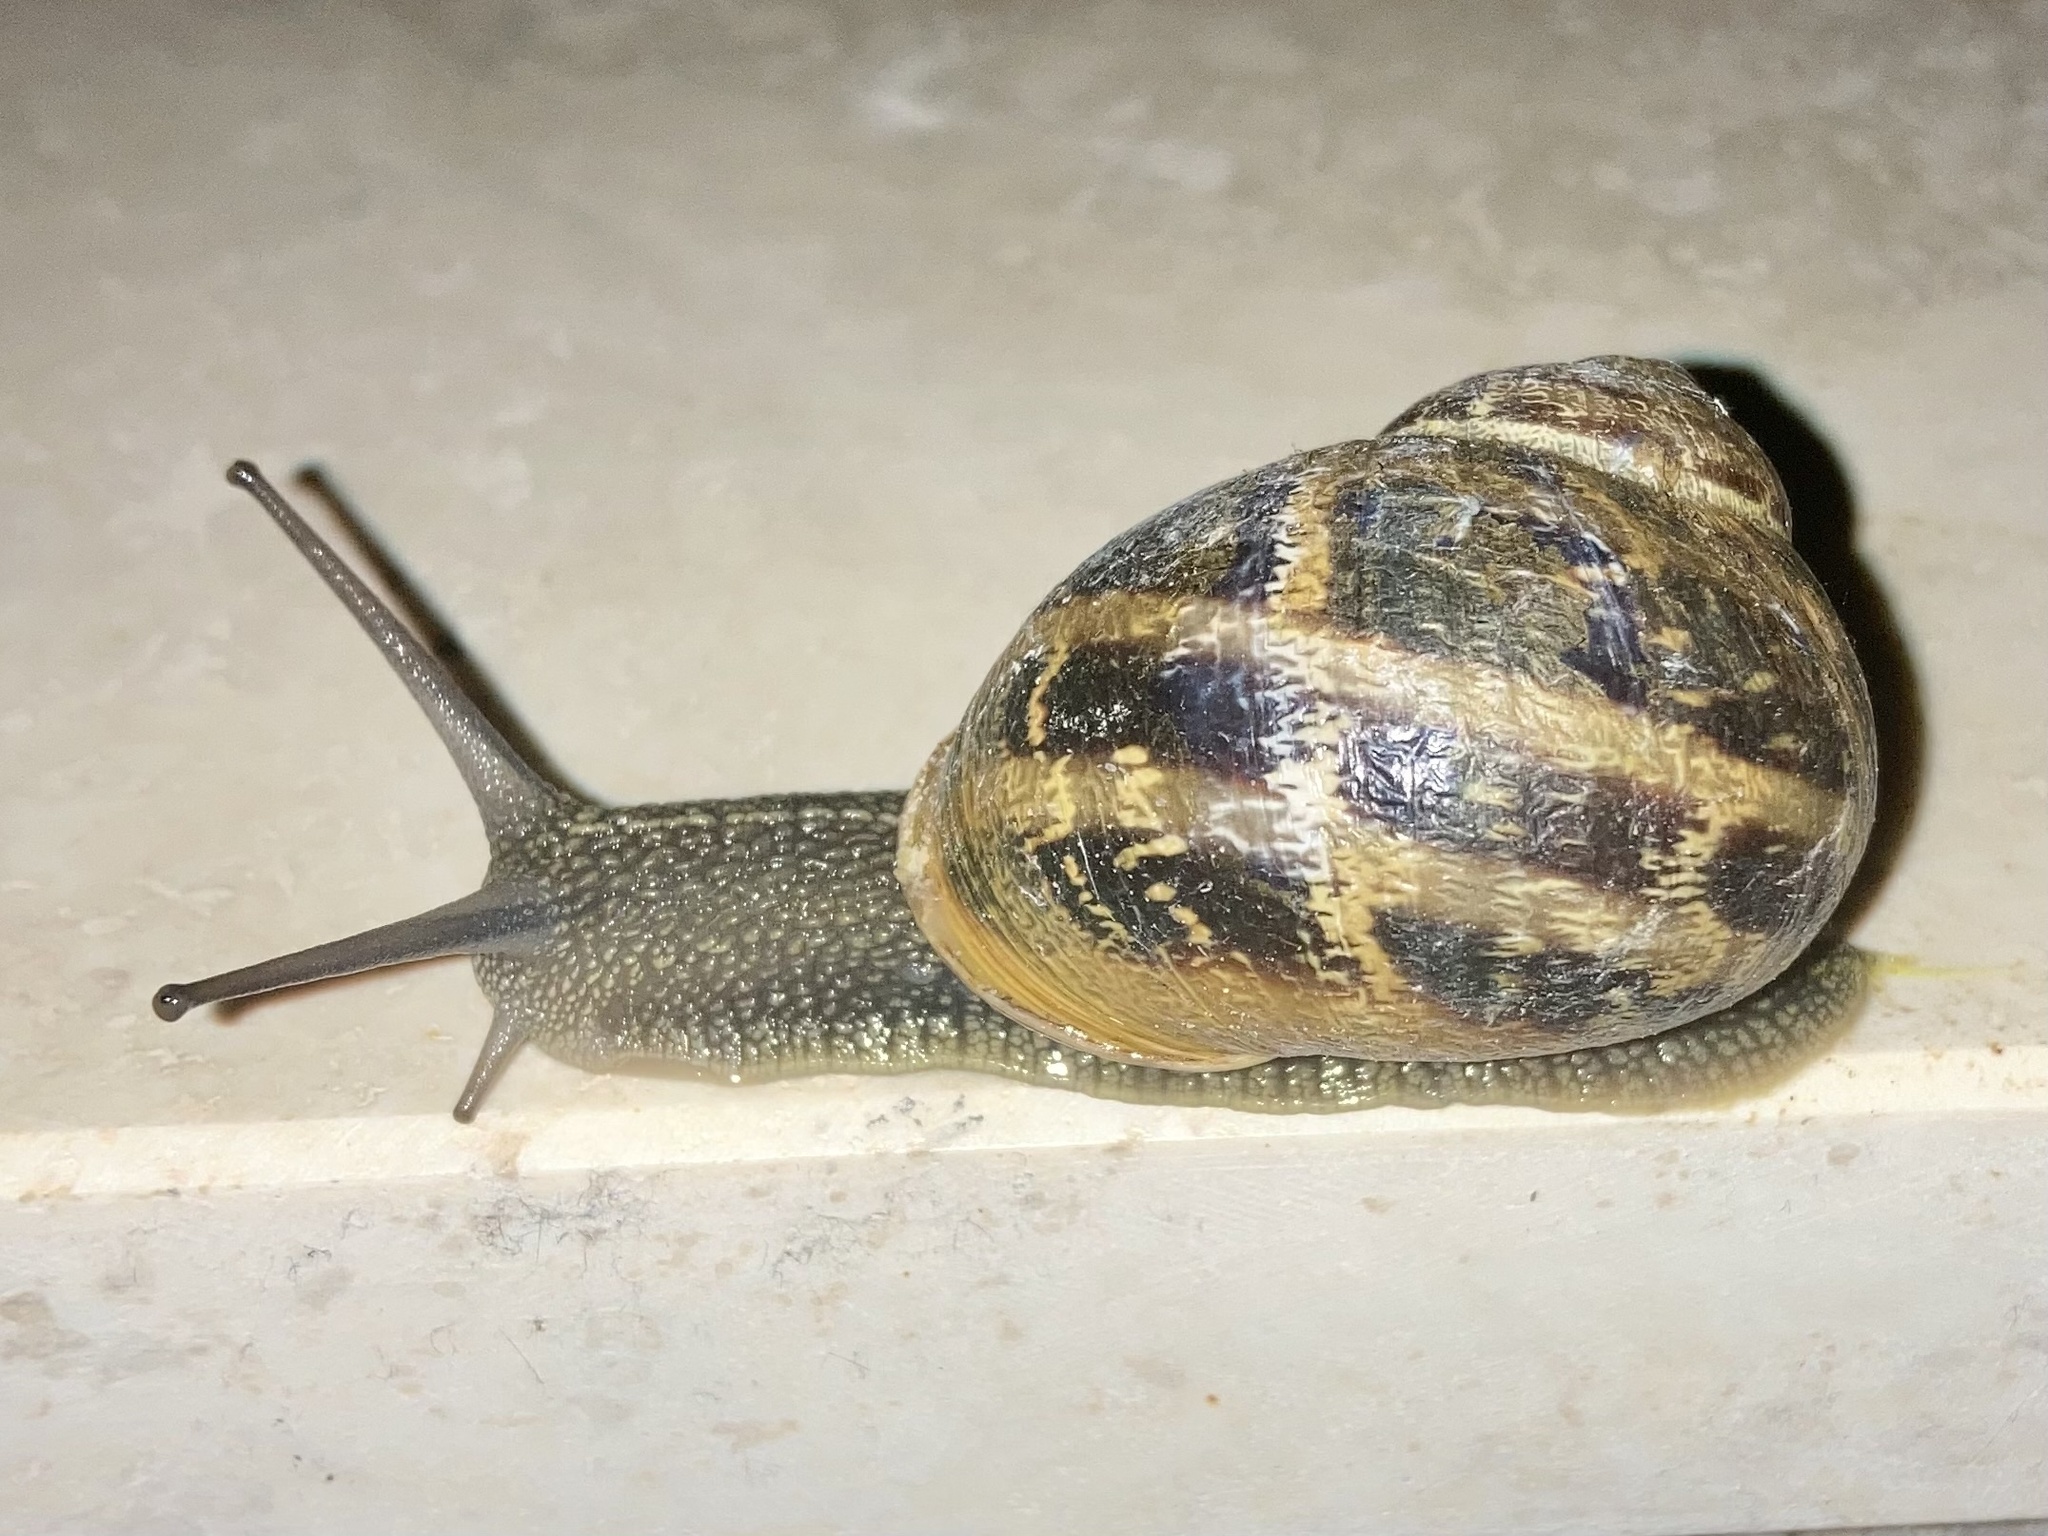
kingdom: Animalia
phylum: Mollusca
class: Gastropoda
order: Stylommatophora
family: Helicidae
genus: Cornu
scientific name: Cornu aspersum
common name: Brown garden snail
